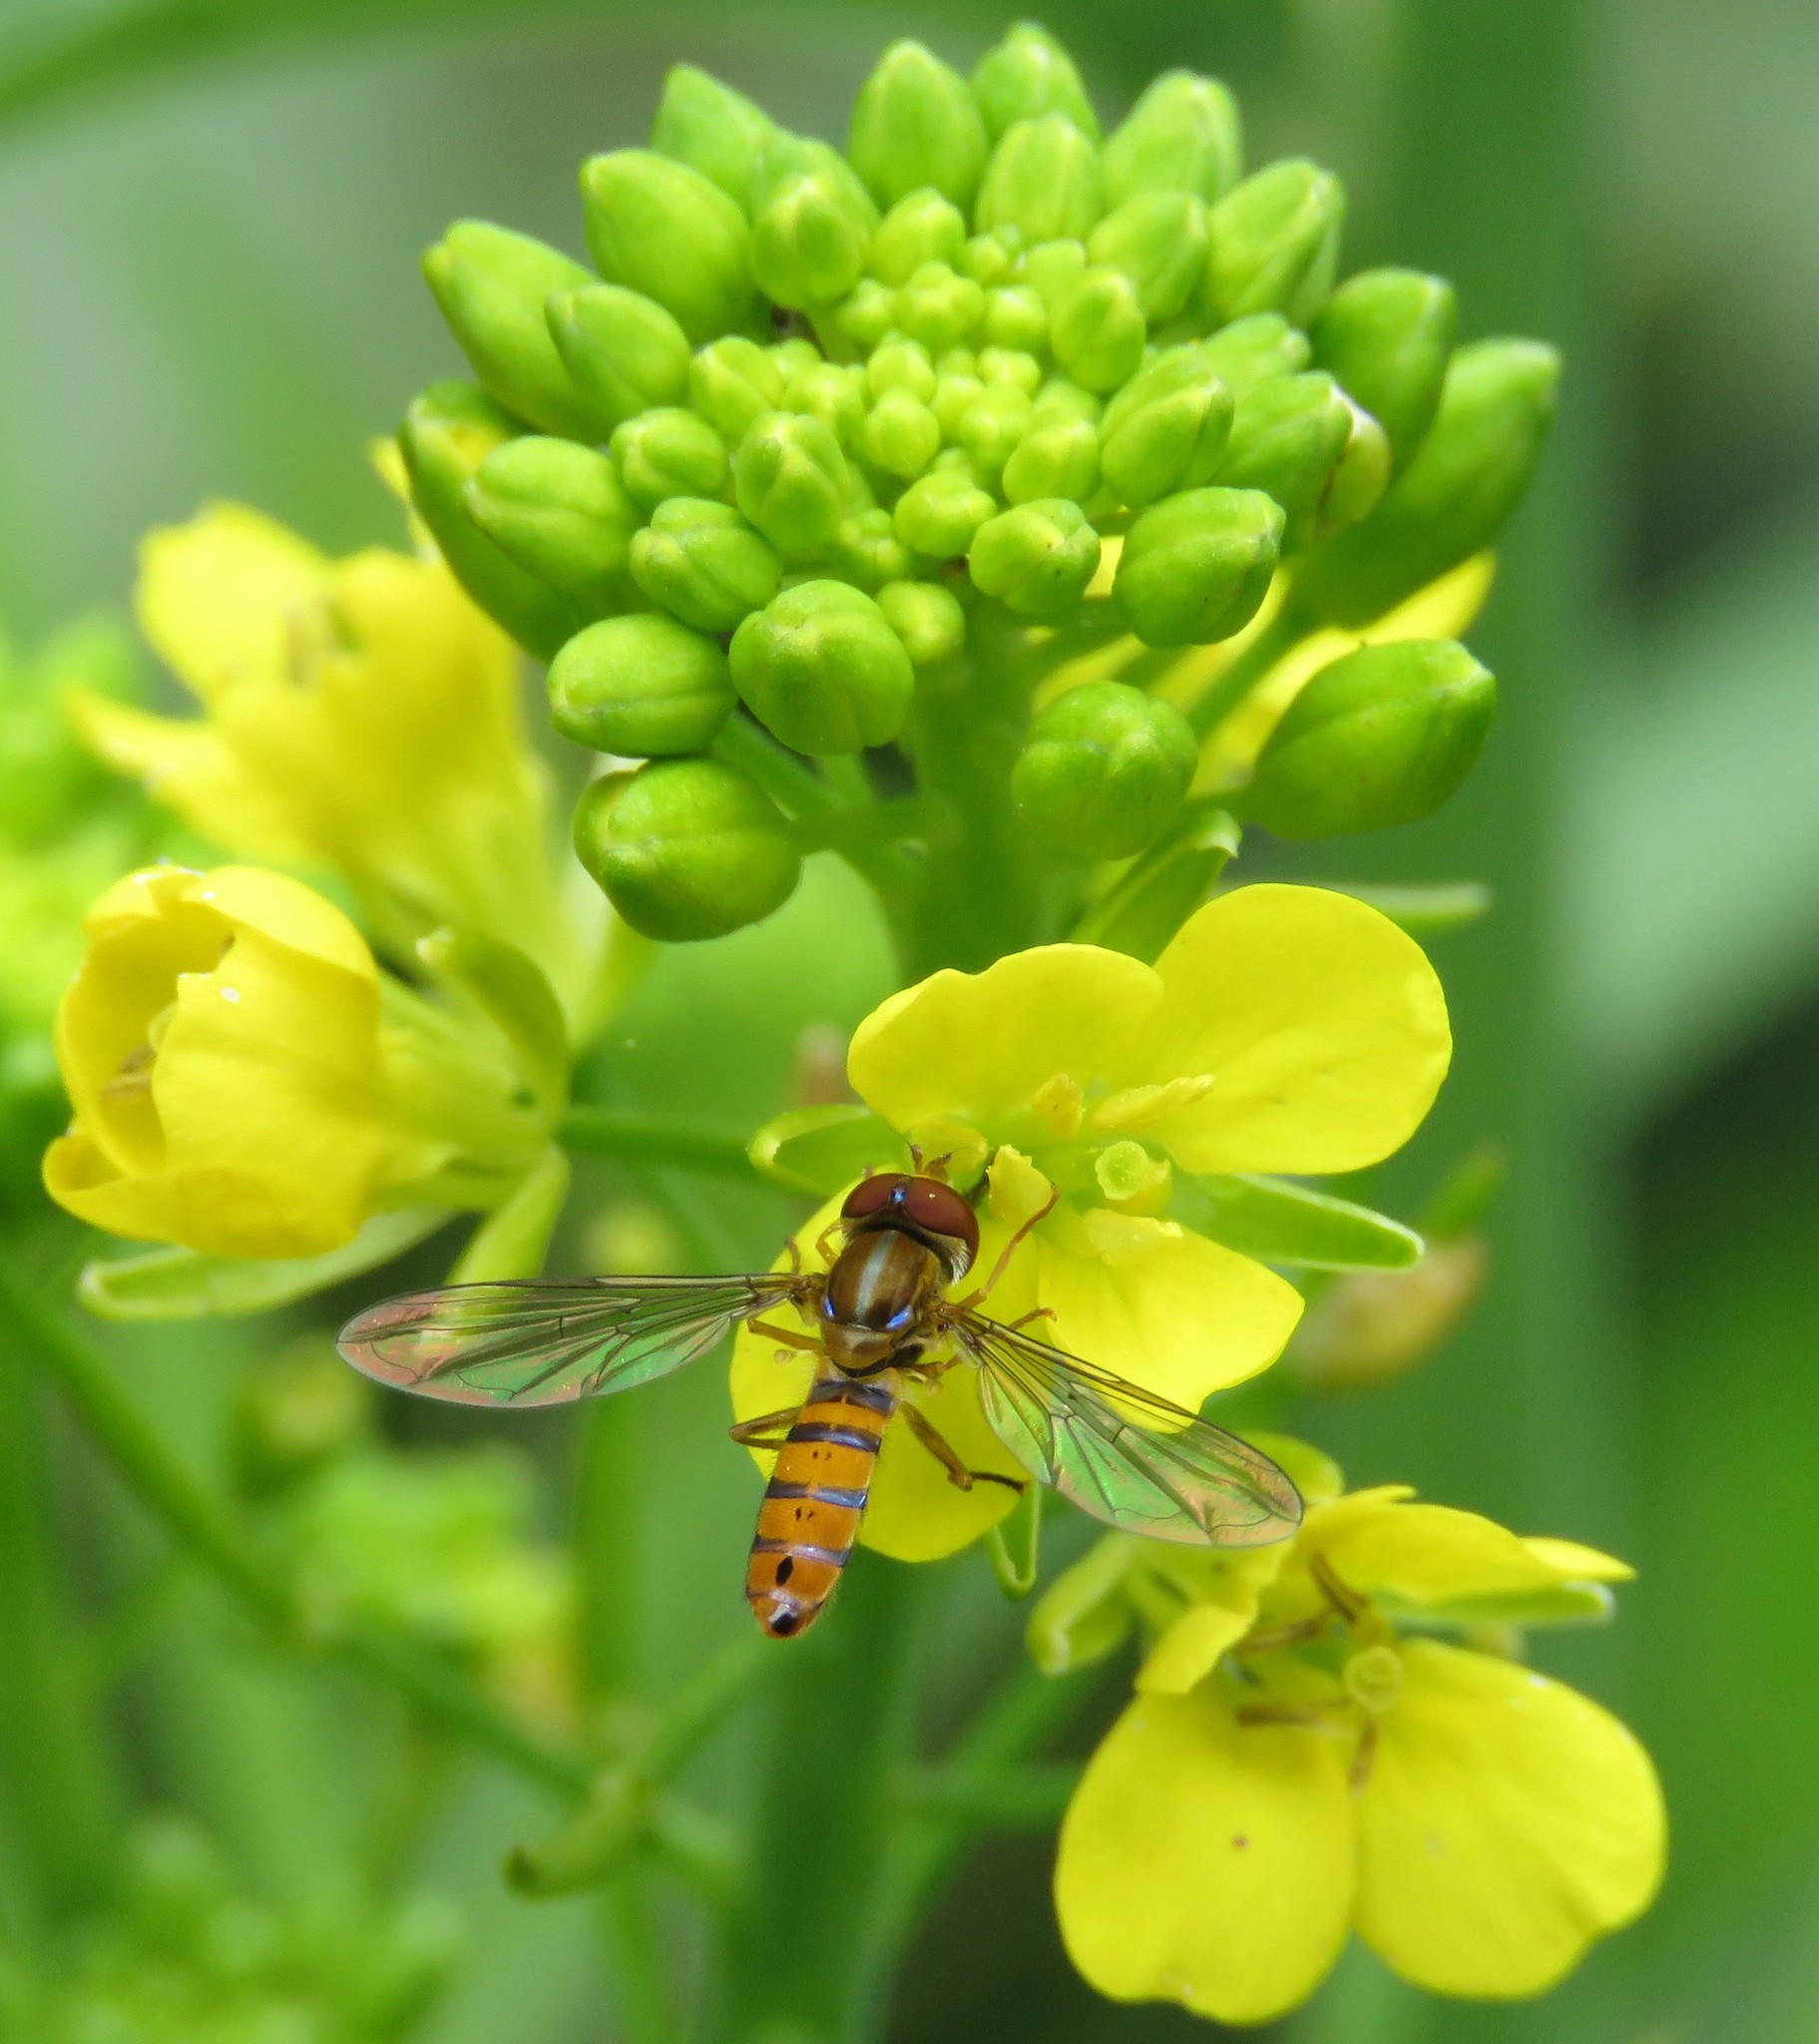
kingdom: Animalia
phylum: Arthropoda
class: Insecta
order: Diptera
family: Syrphidae
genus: Toxomerus
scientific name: Toxomerus
